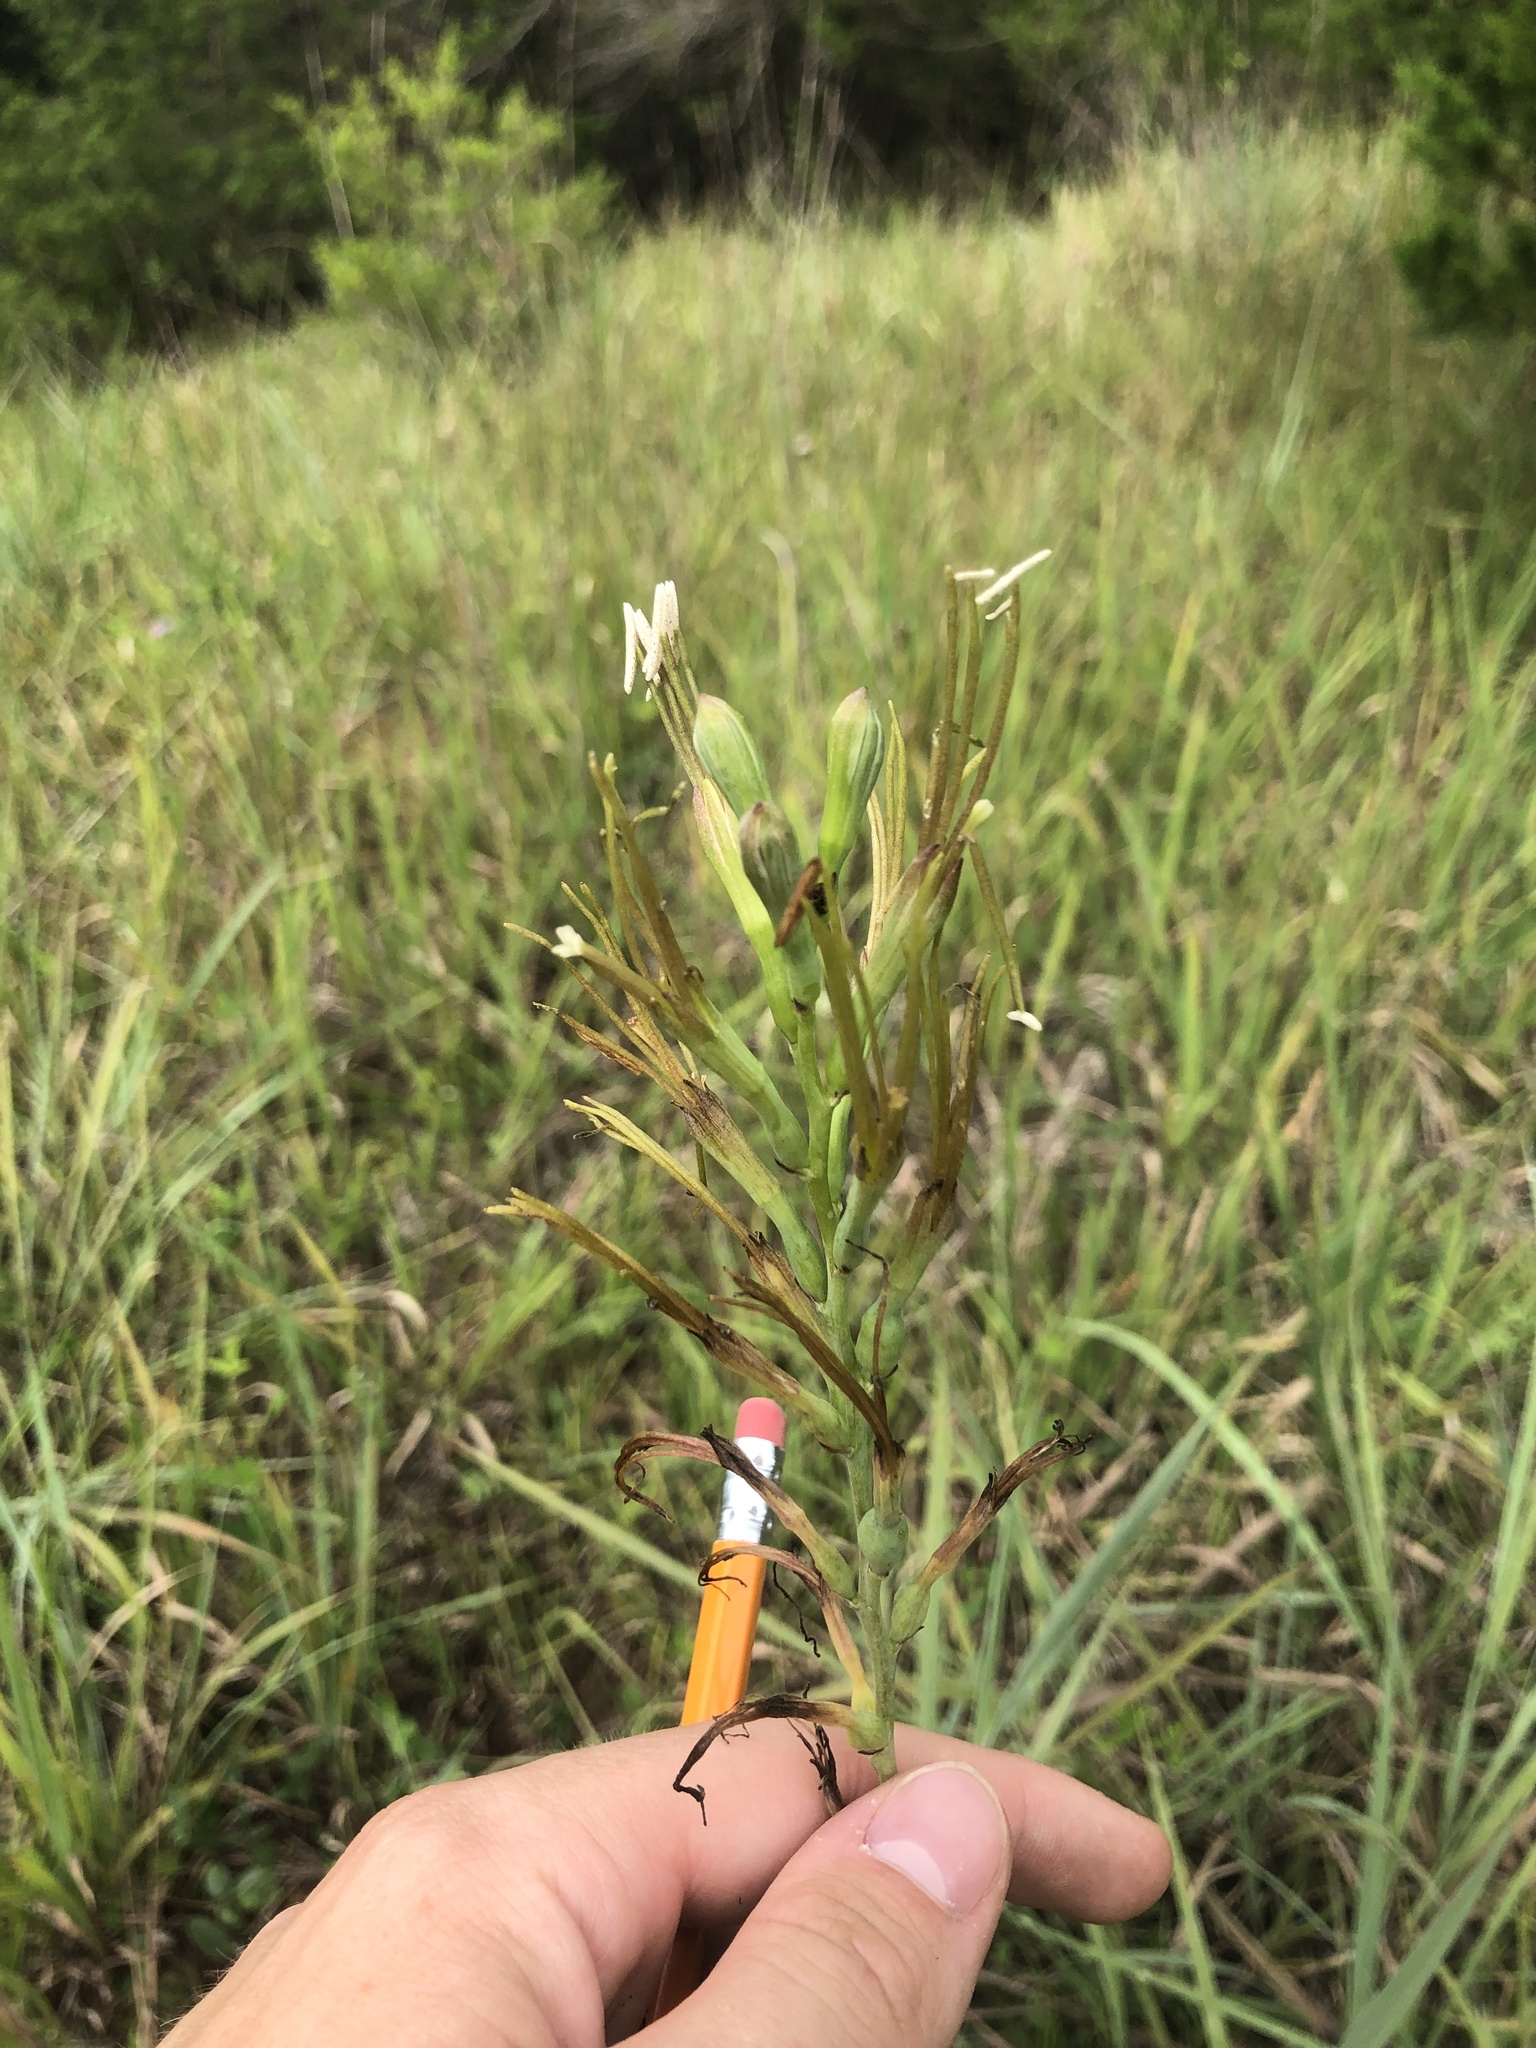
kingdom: Plantae
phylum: Tracheophyta
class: Liliopsida
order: Asparagales
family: Asparagaceae
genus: Agave
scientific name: Agave virginica
